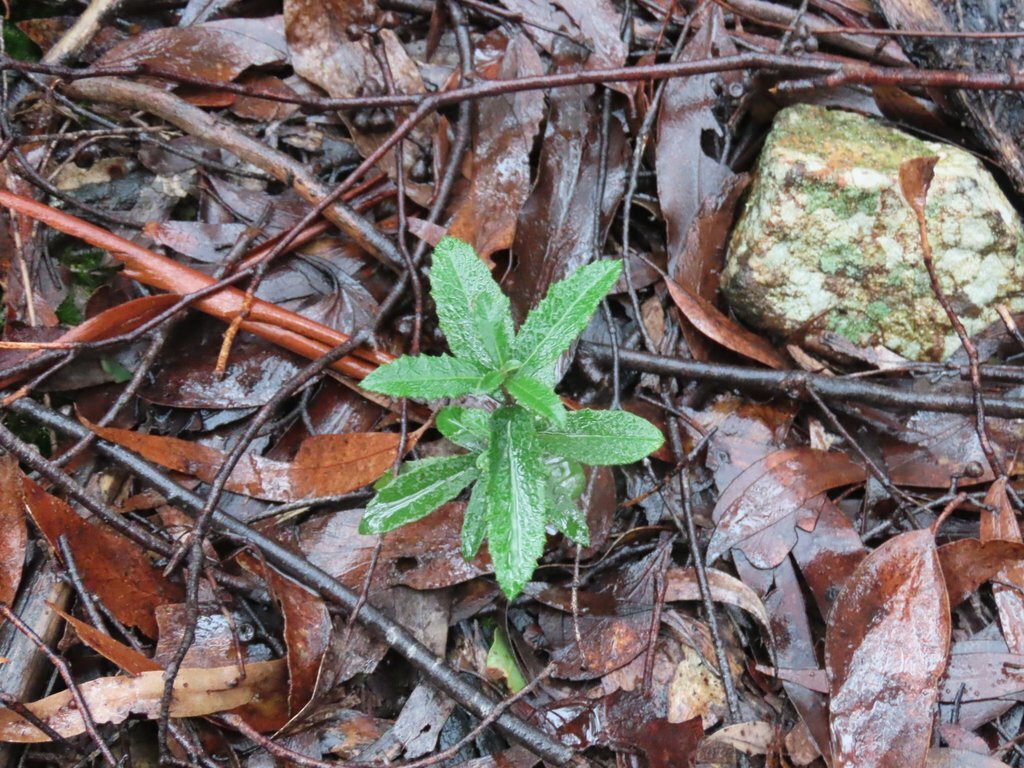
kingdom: Plantae
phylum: Tracheophyta
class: Magnoliopsida
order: Asterales
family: Asteraceae
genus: Olearia
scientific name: Olearia erubescens
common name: Moth daisybush
